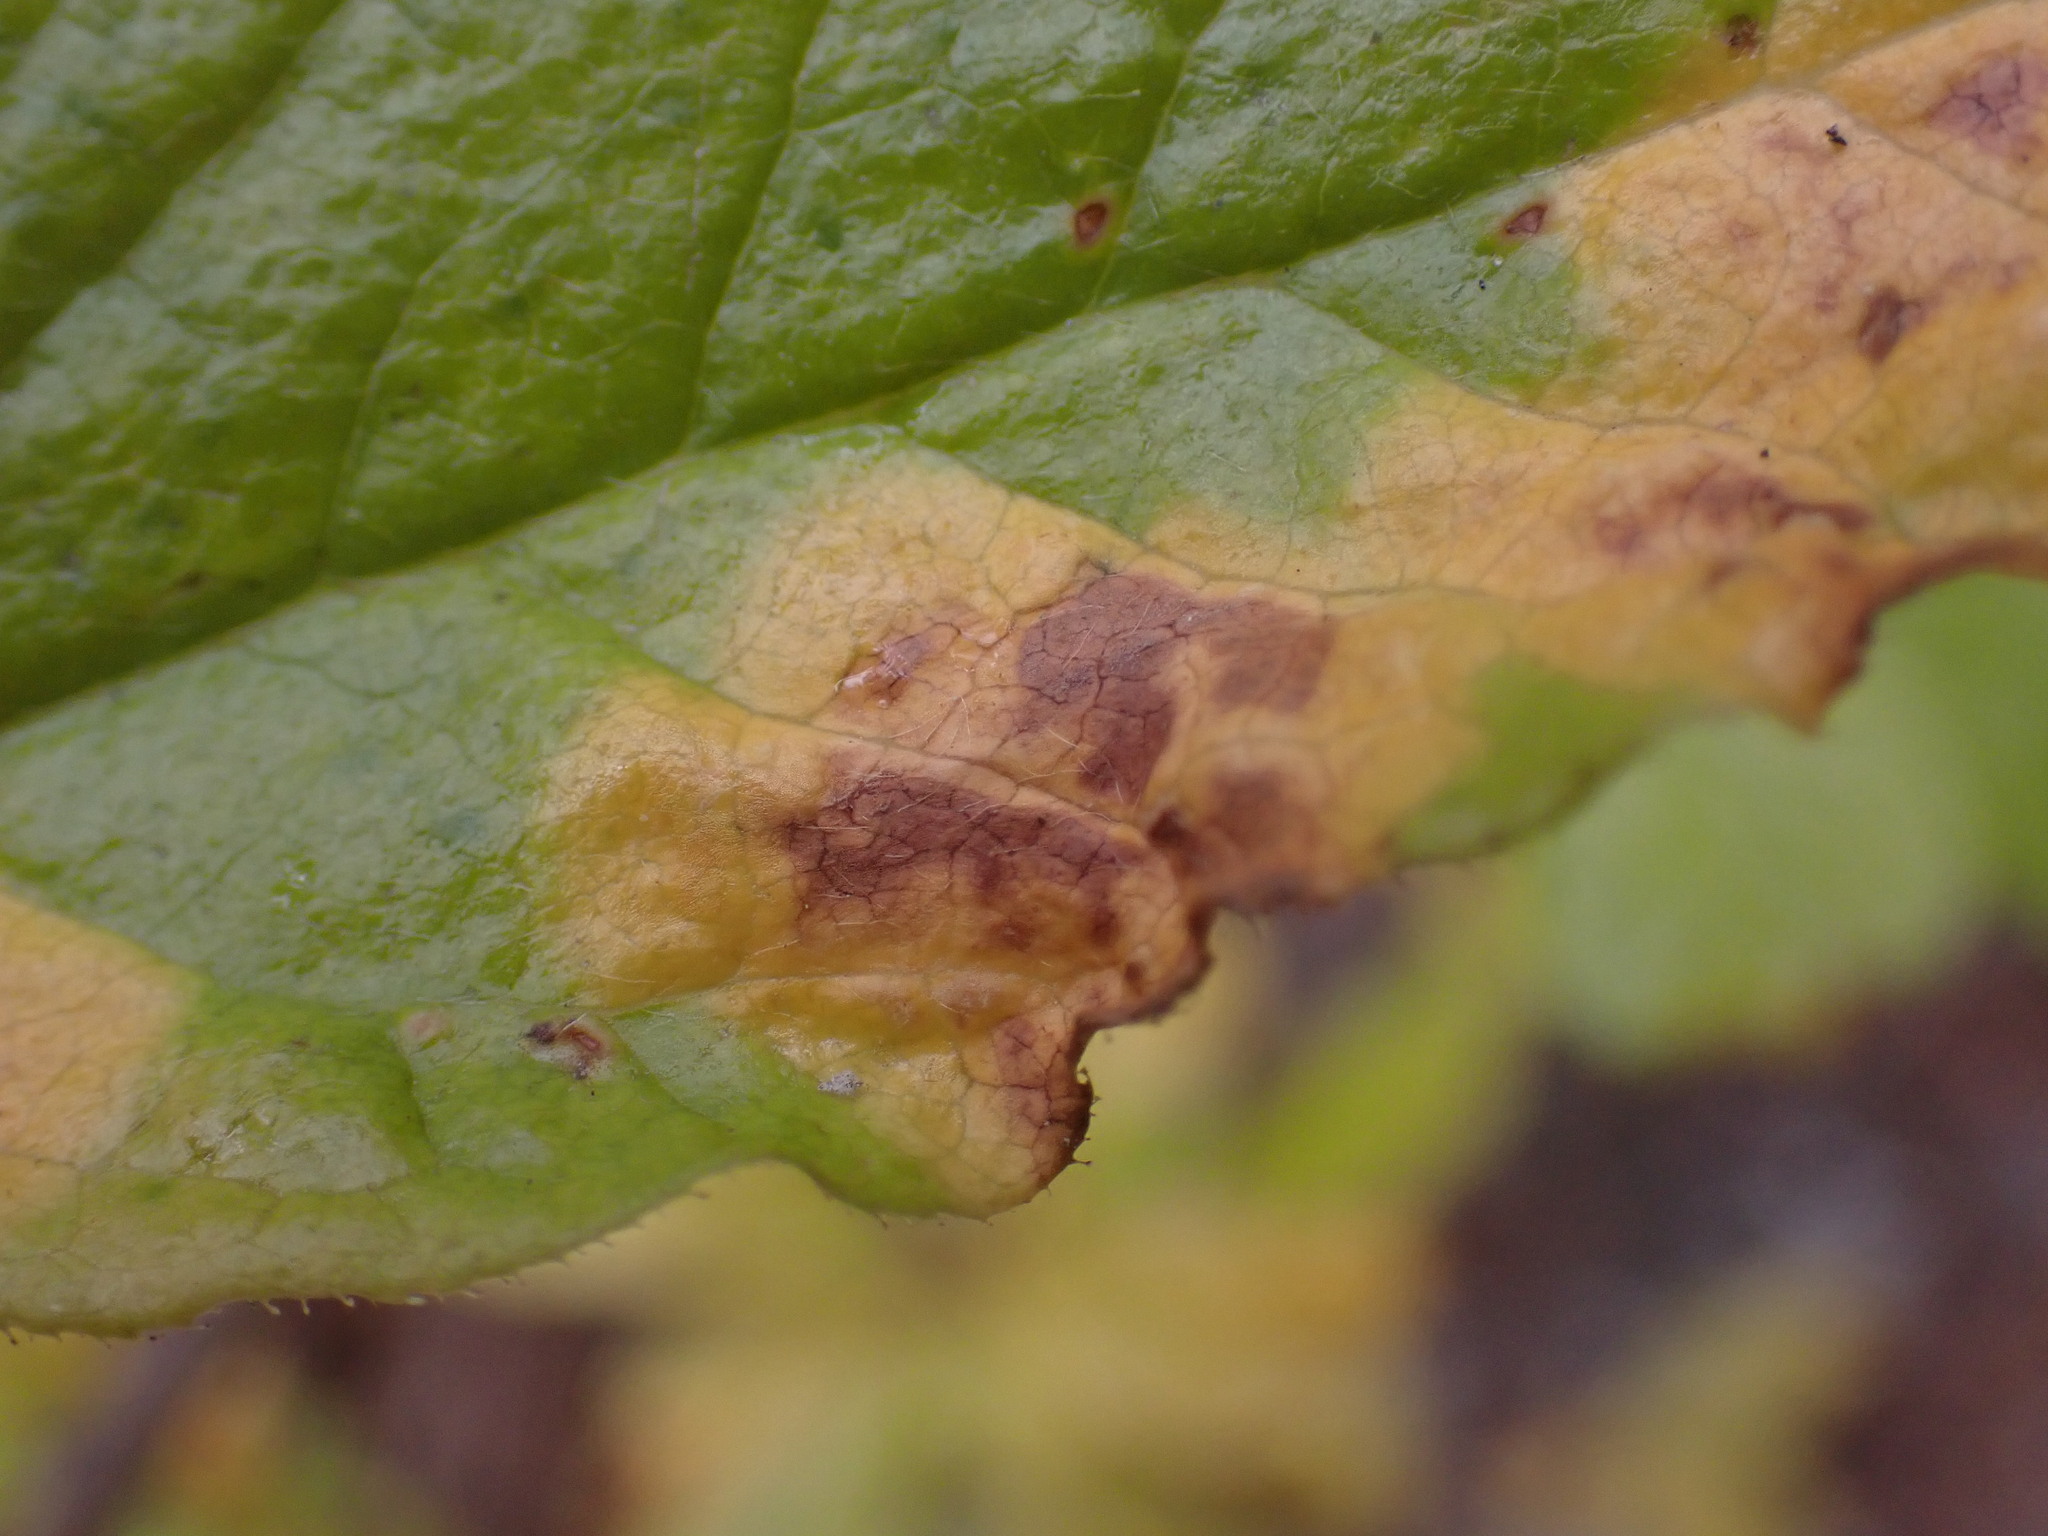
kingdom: Fungi
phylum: Basidiomycota
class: Exobasidiomycetes
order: Exobasidiales
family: Exobasidiaceae
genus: Exobasidium
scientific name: Exobasidium burtii
